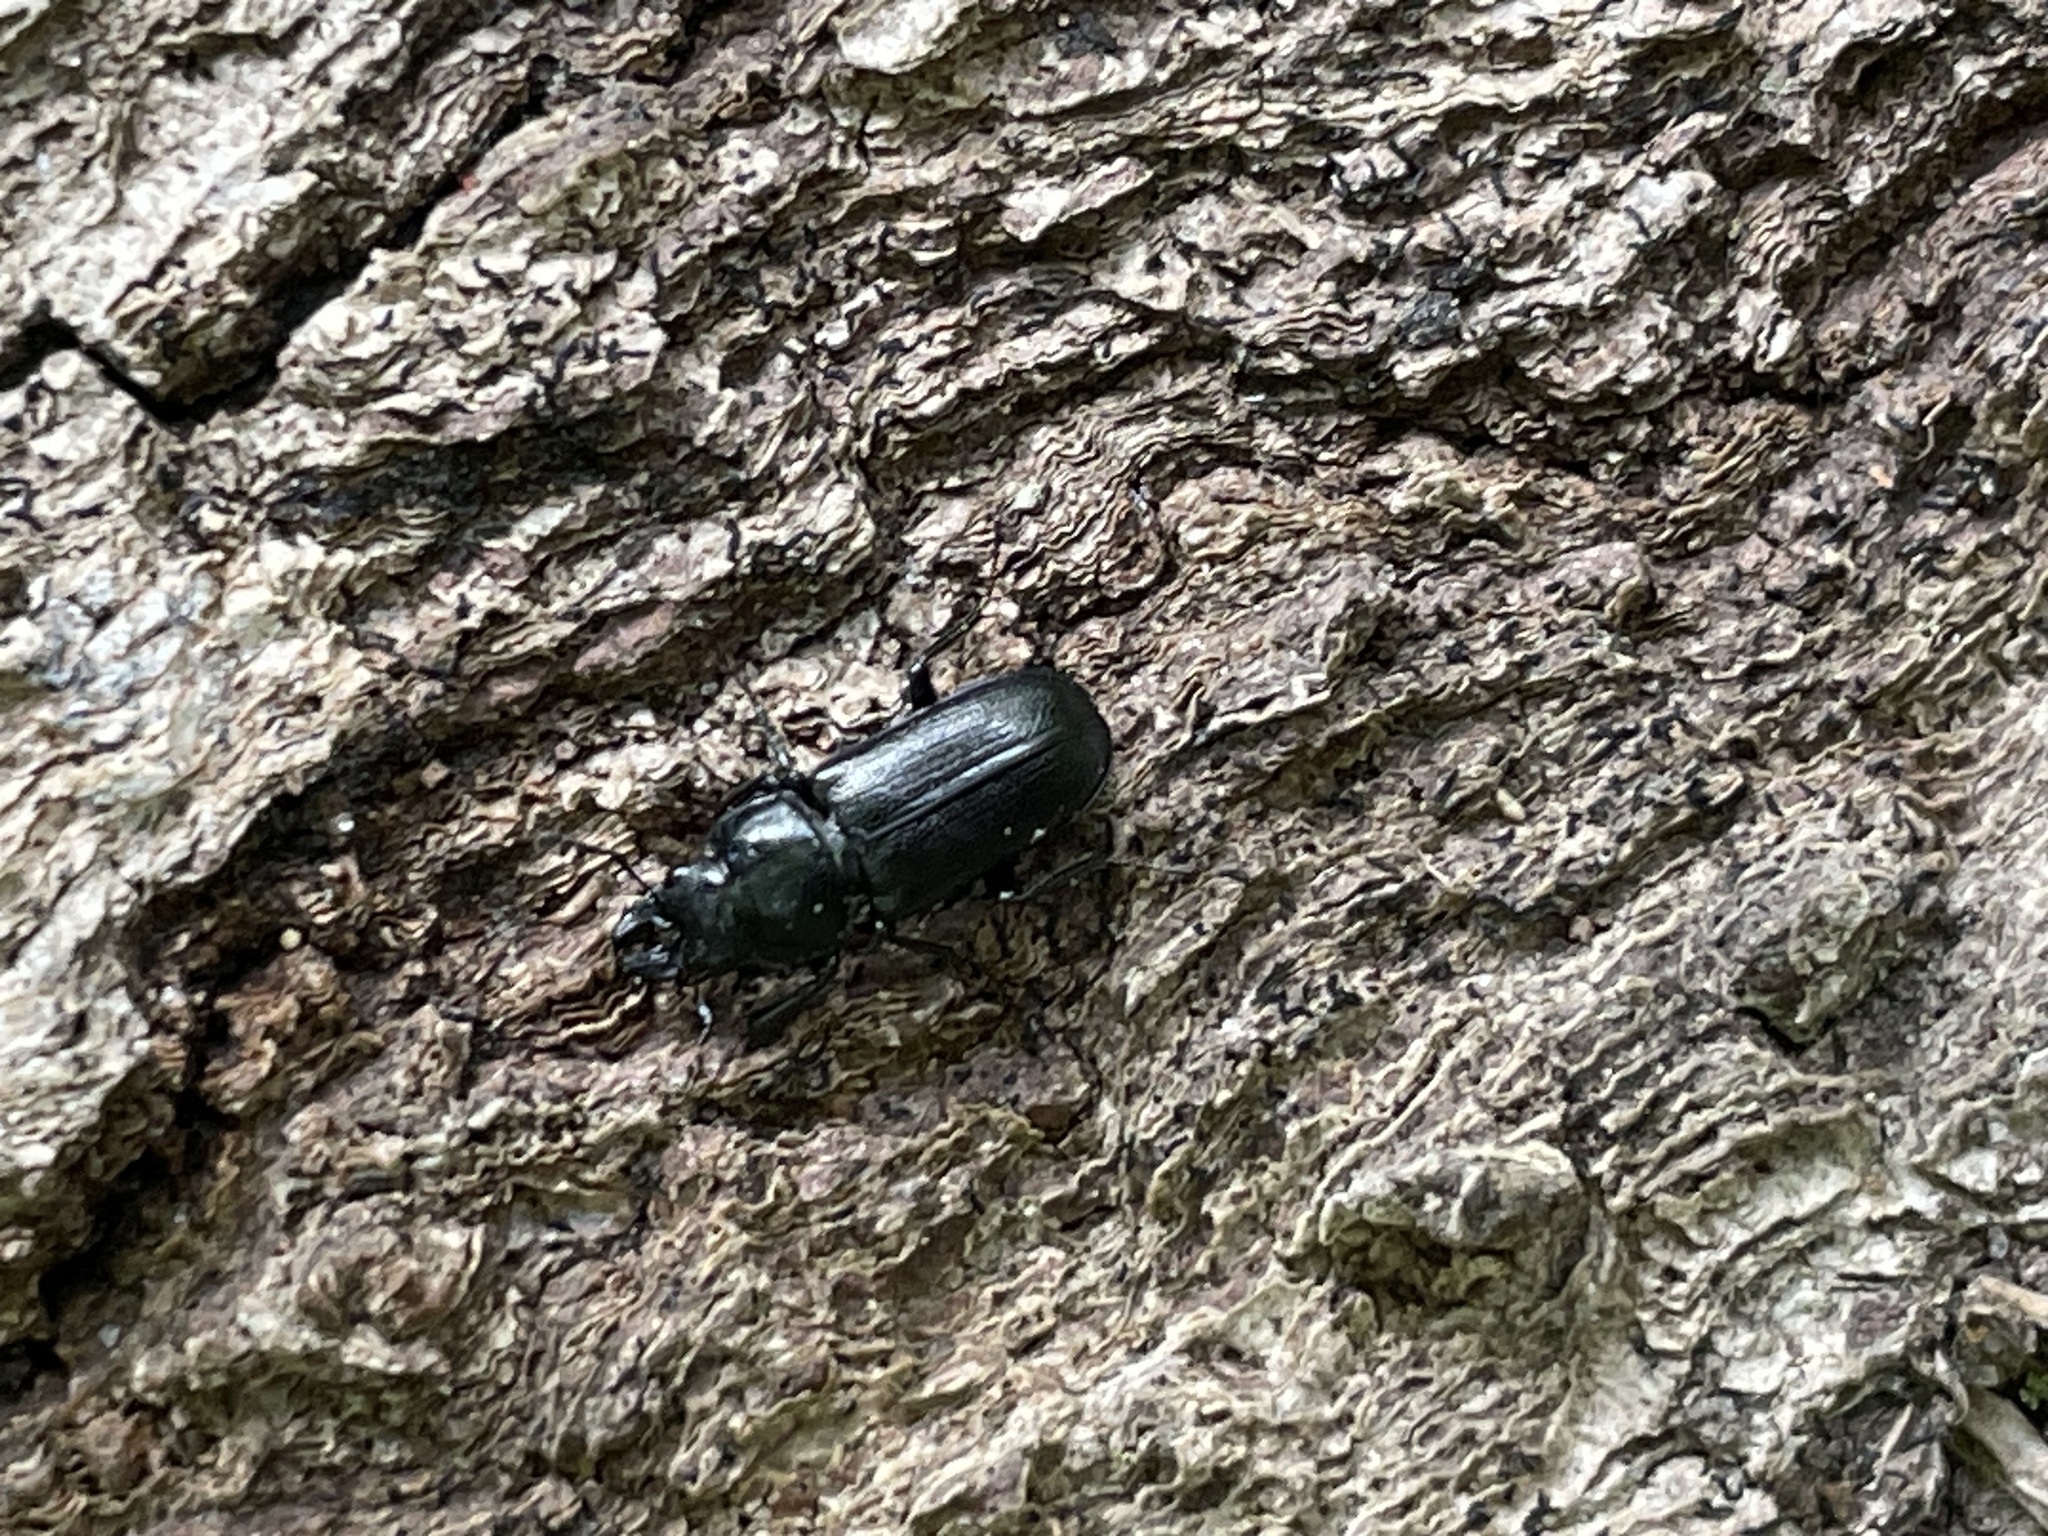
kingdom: Animalia
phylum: Arthropoda
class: Insecta
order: Coleoptera
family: Lucanidae
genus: Platycerus
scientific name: Platycerus quercus
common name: Oak stag beetle
